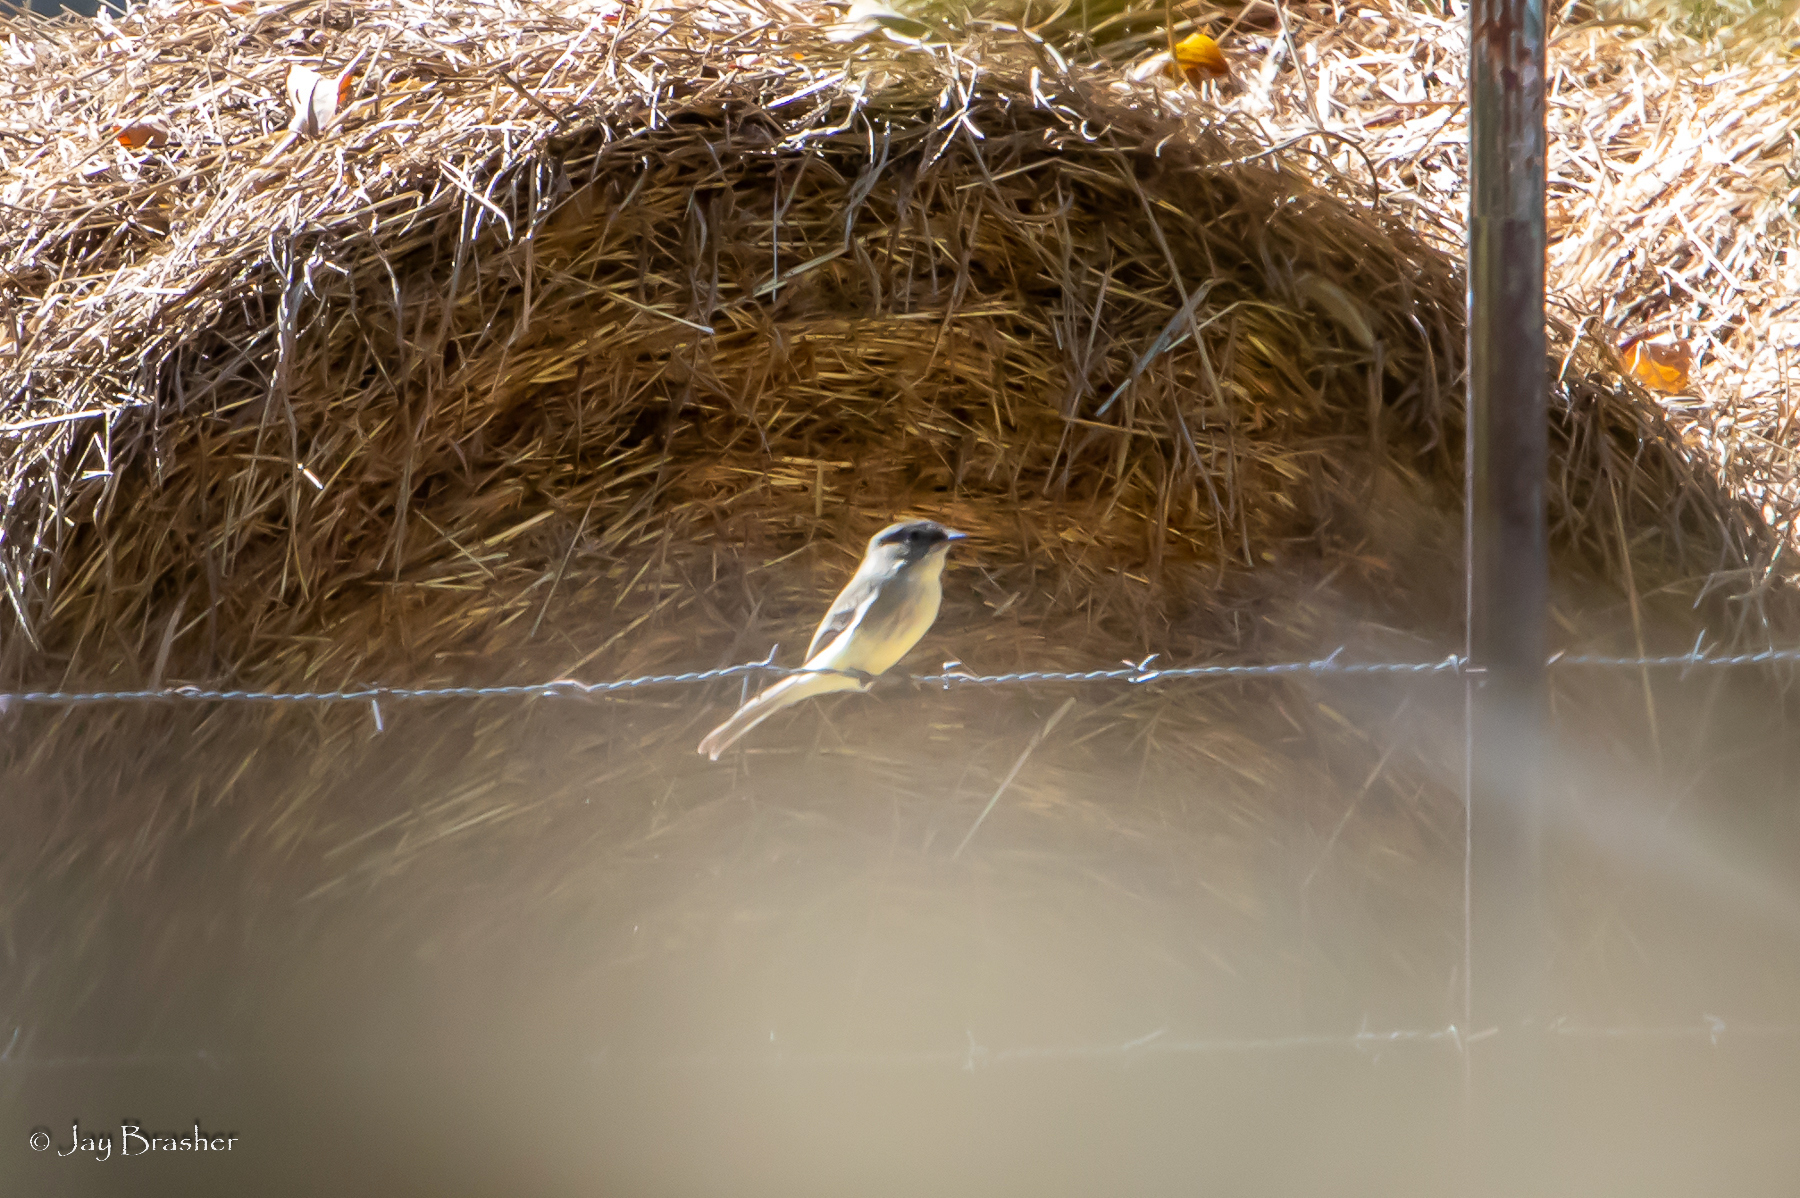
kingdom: Animalia
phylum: Chordata
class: Aves
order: Passeriformes
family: Tyrannidae
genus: Sayornis
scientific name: Sayornis phoebe
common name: Eastern phoebe
